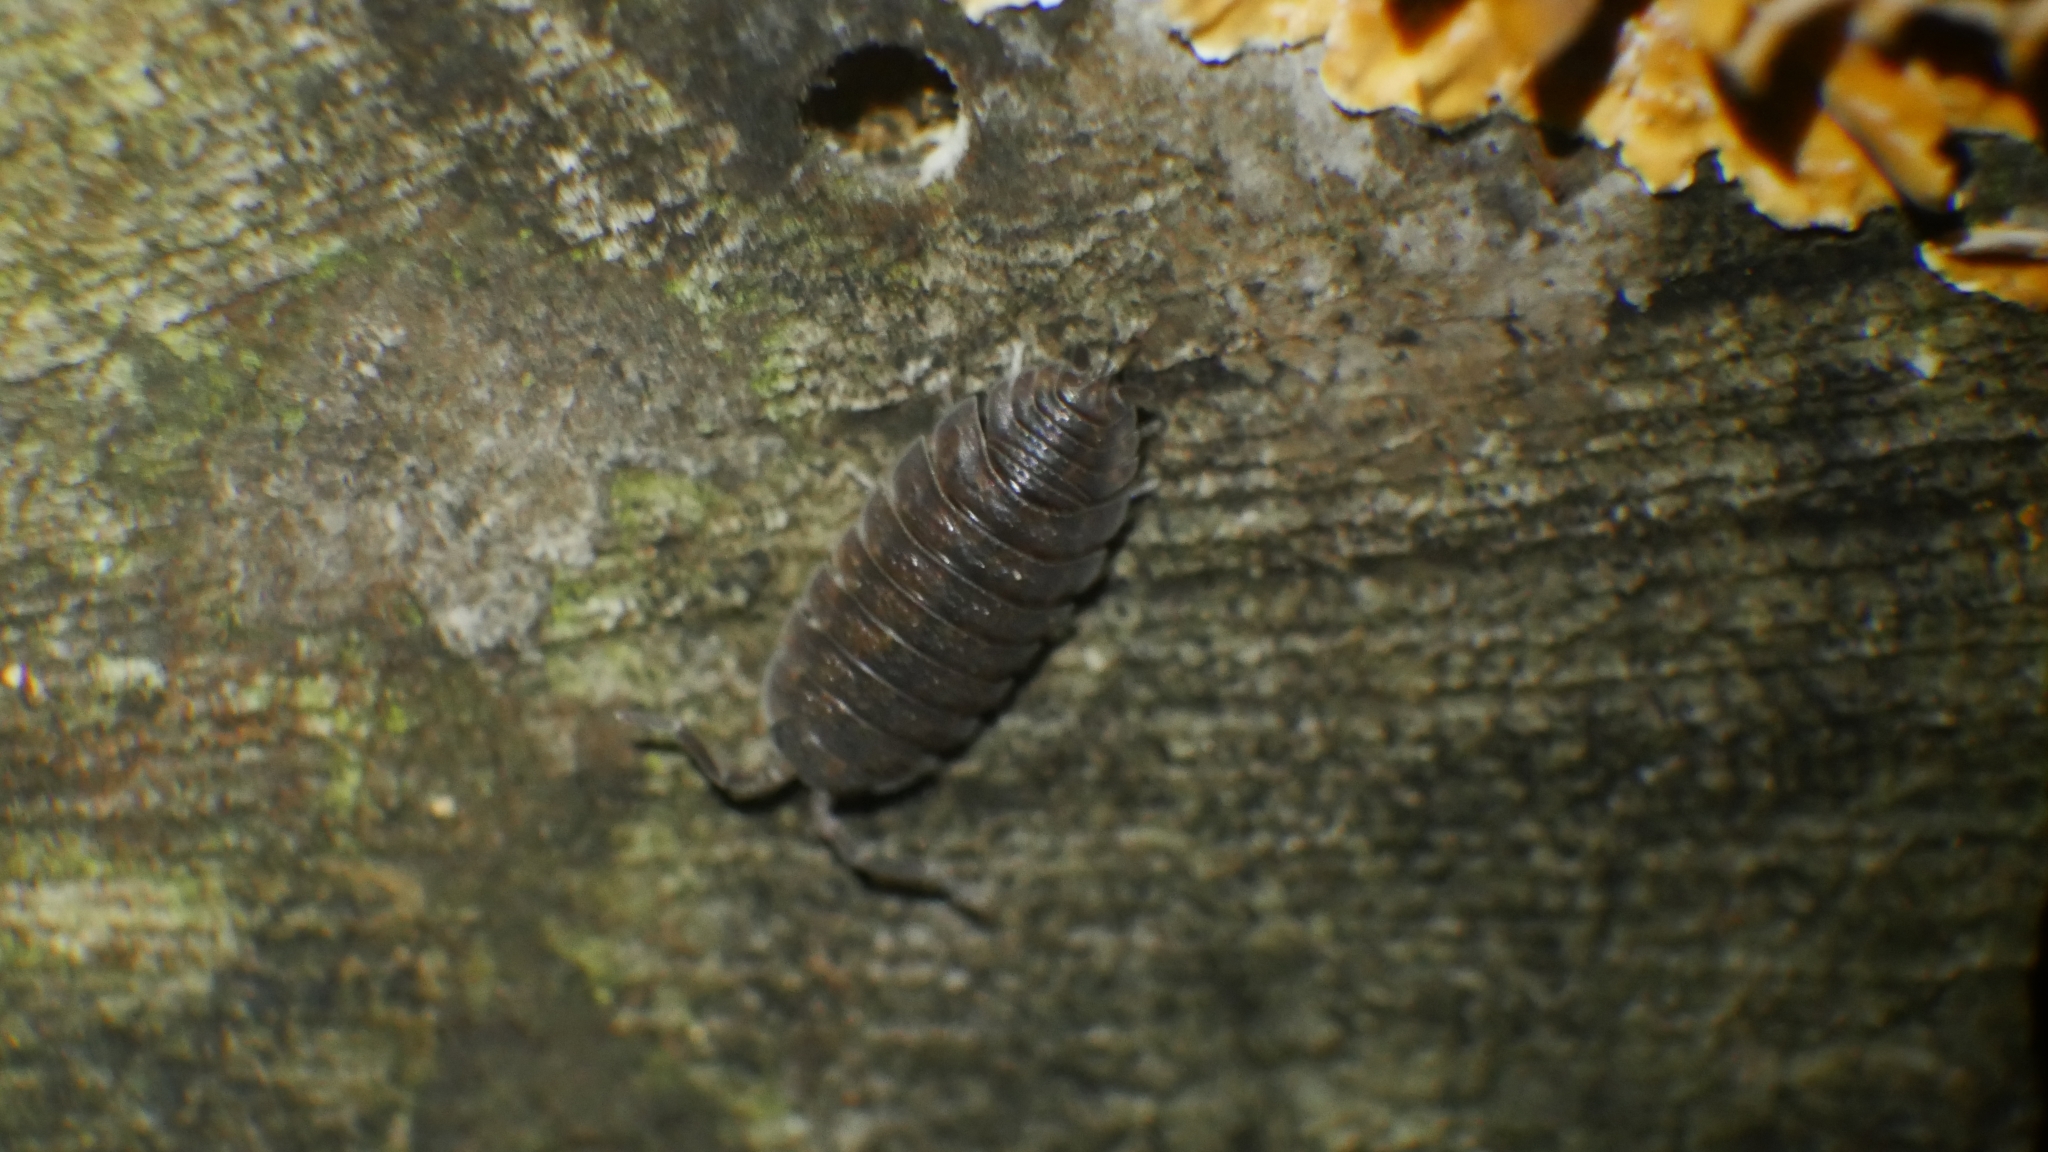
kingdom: Animalia
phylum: Arthropoda
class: Malacostraca
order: Isopoda
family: Porcellionidae
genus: Porcellio
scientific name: Porcellio scaber
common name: Common rough woodlouse
